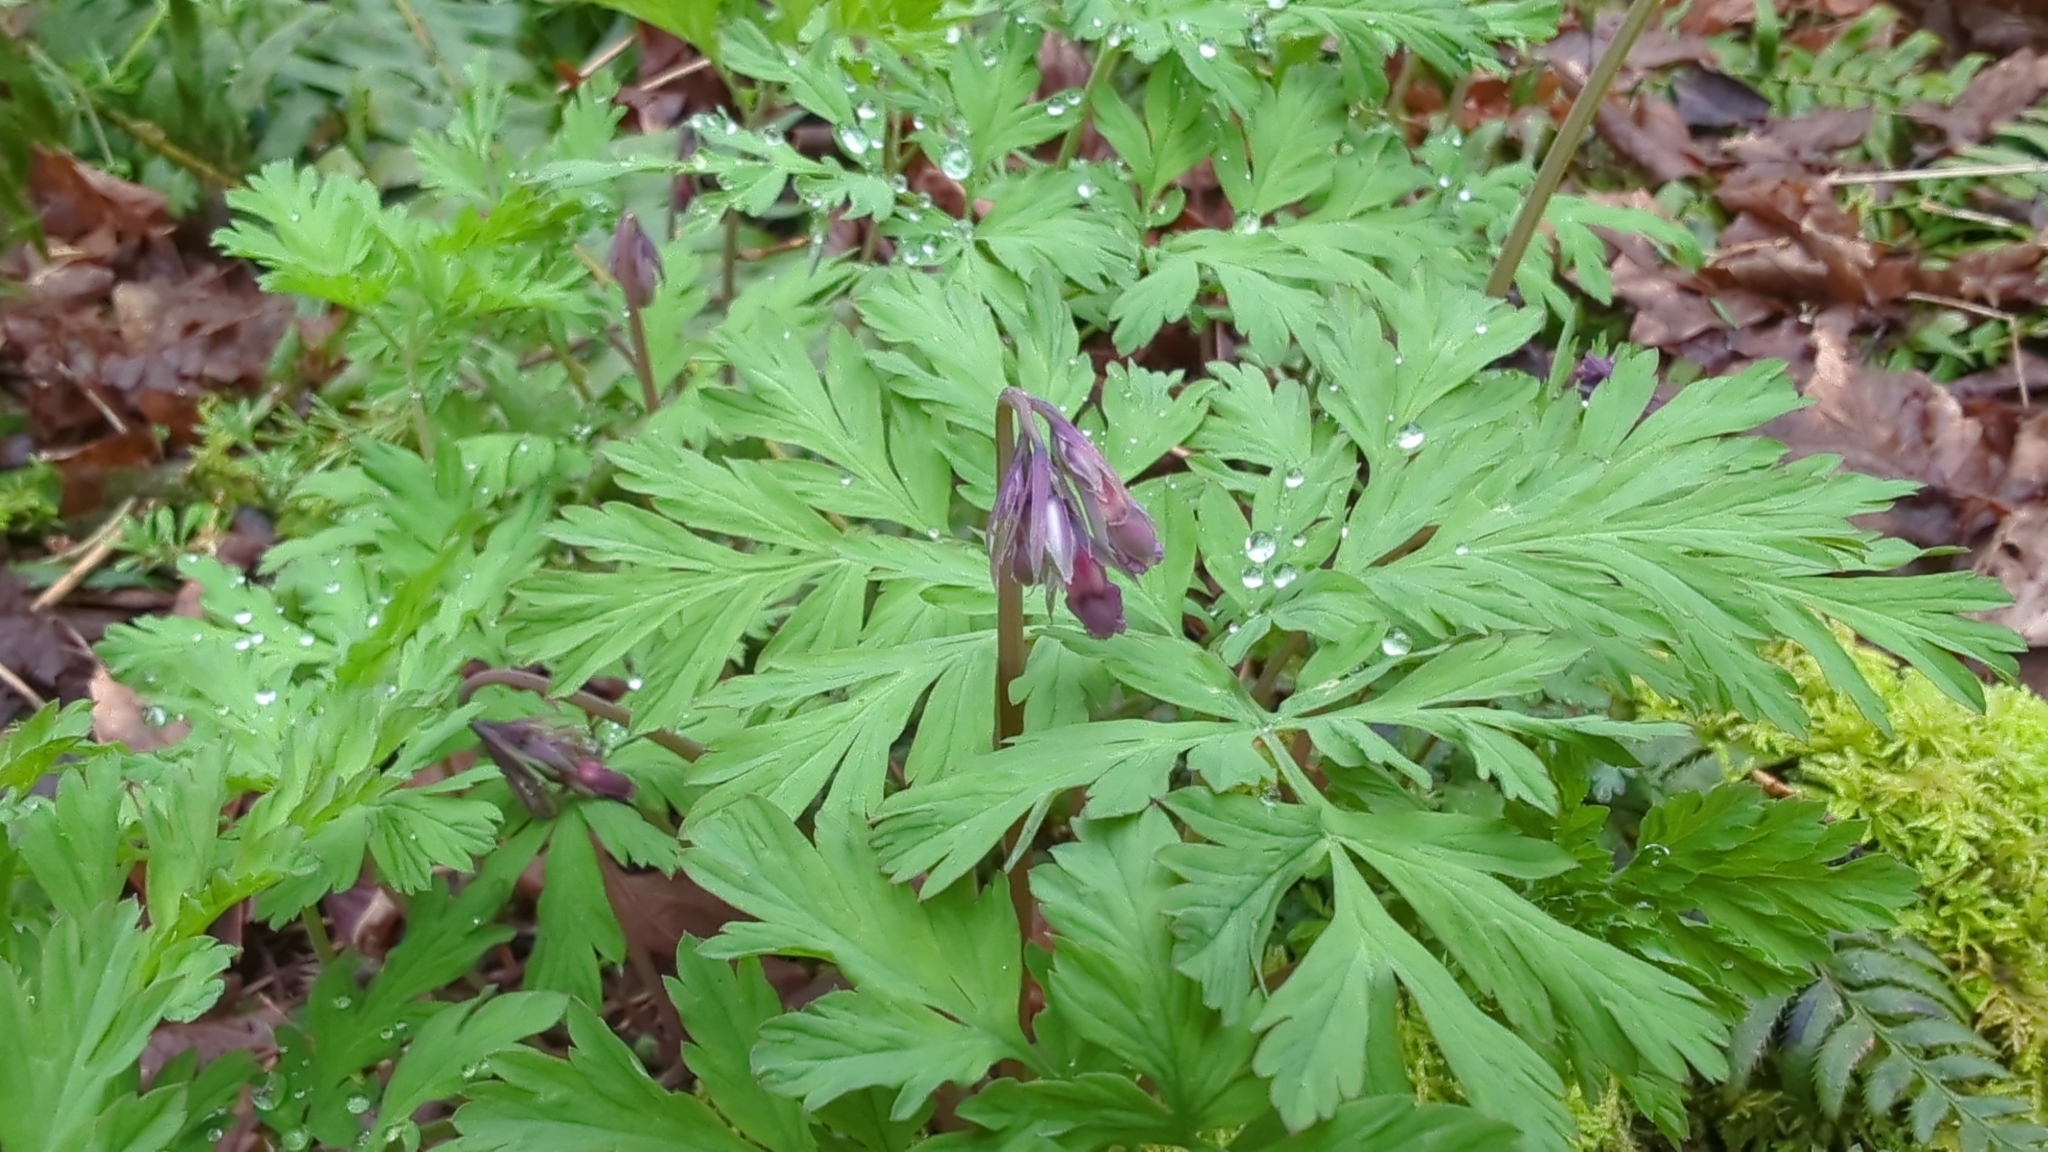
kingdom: Plantae
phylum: Tracheophyta
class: Magnoliopsida
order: Ranunculales
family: Papaveraceae
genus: Dicentra
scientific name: Dicentra formosa
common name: Bleeding-heart
